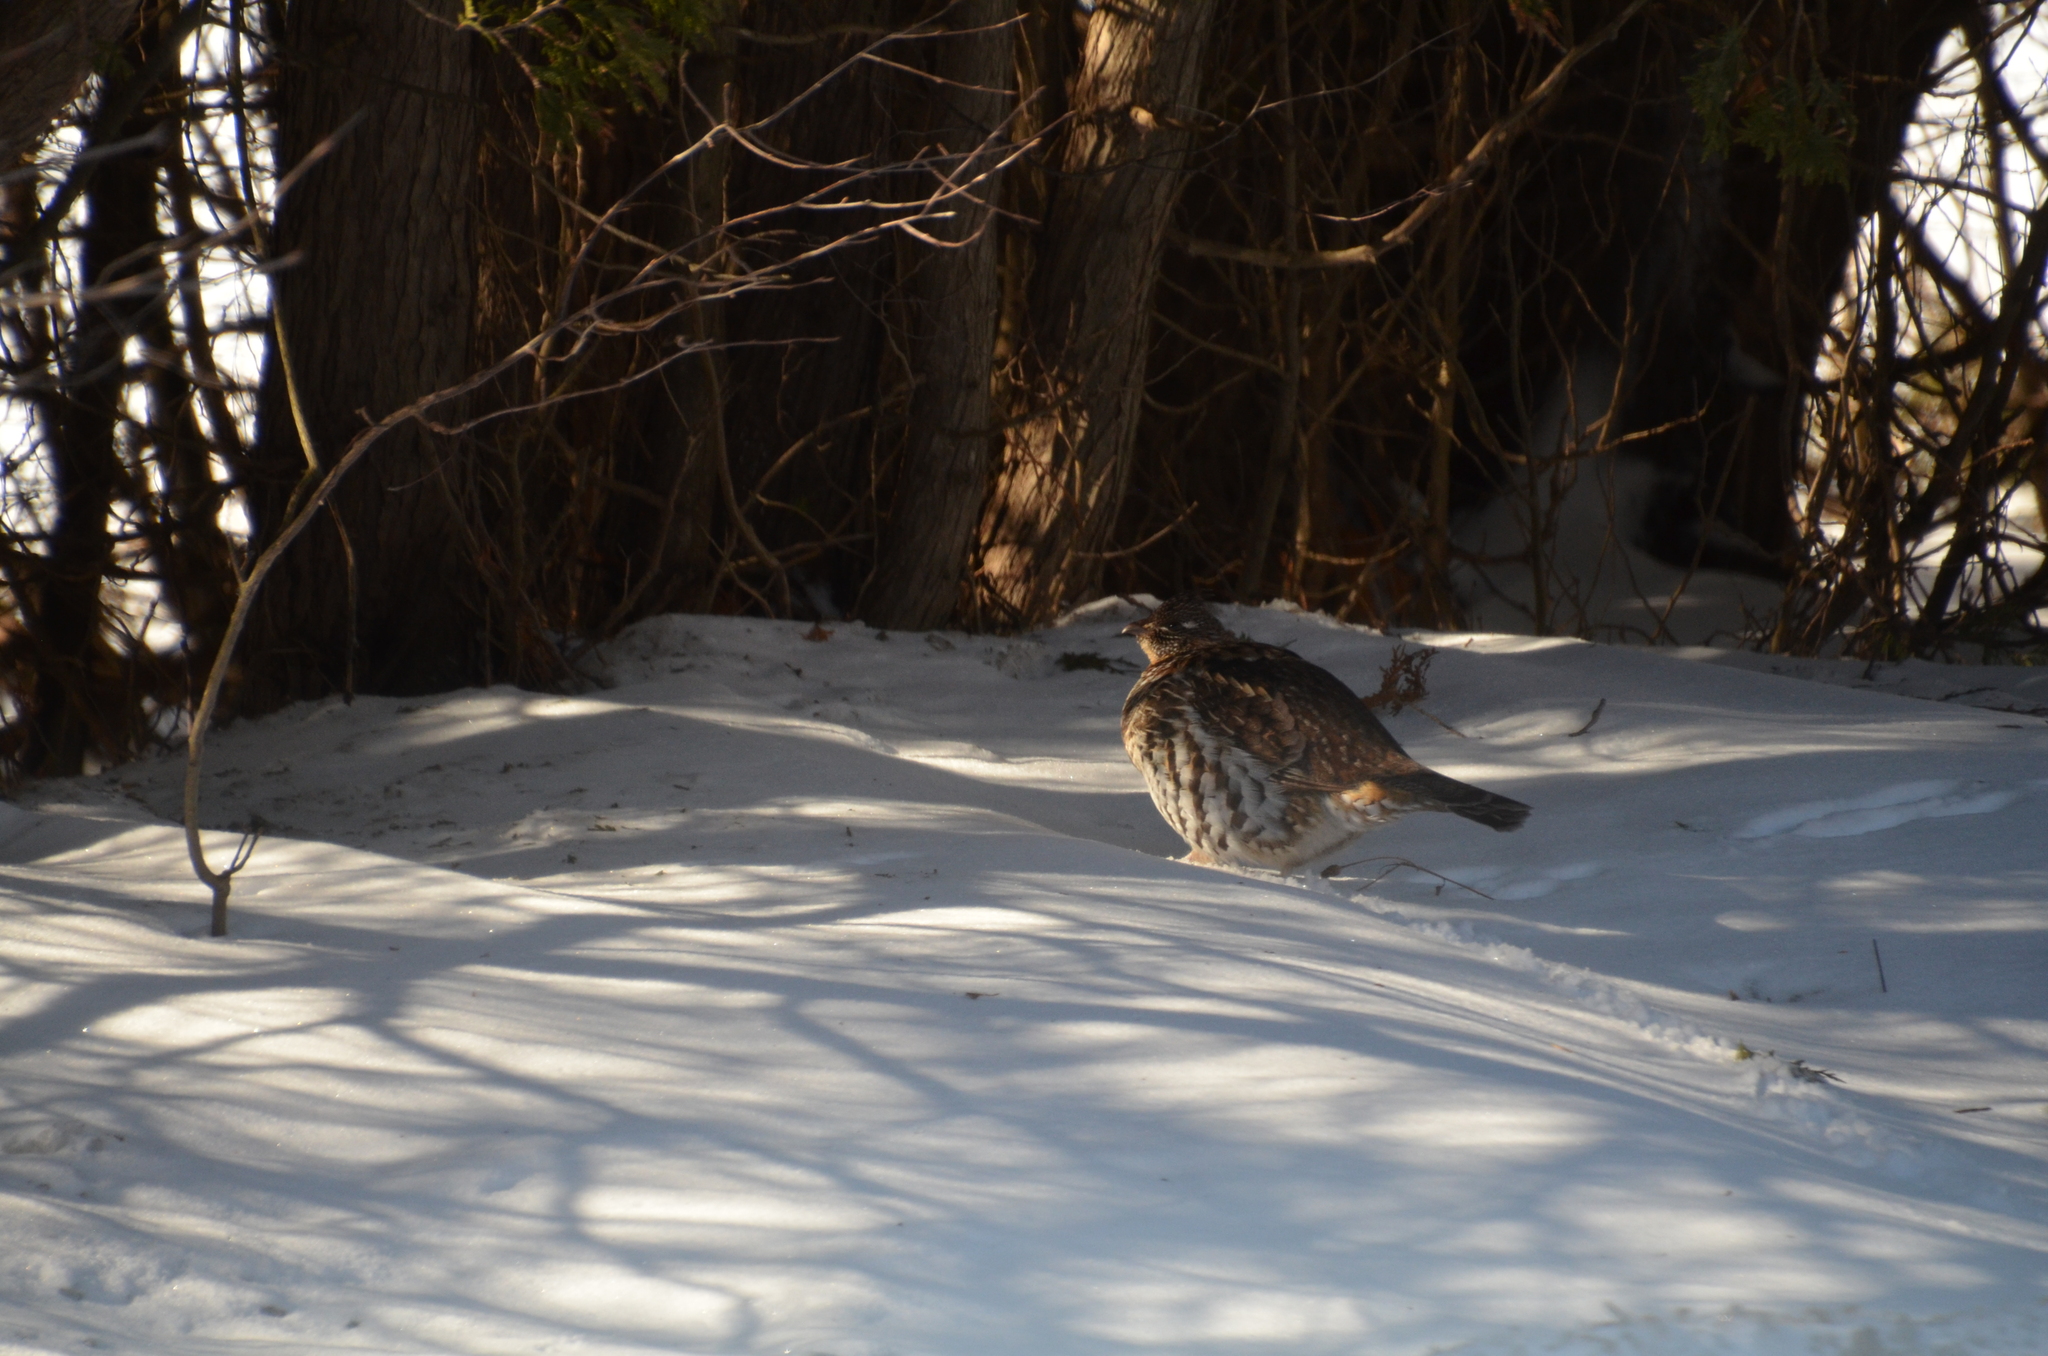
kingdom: Animalia
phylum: Chordata
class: Aves
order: Galliformes
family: Phasianidae
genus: Bonasa
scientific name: Bonasa umbellus
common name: Ruffed grouse
